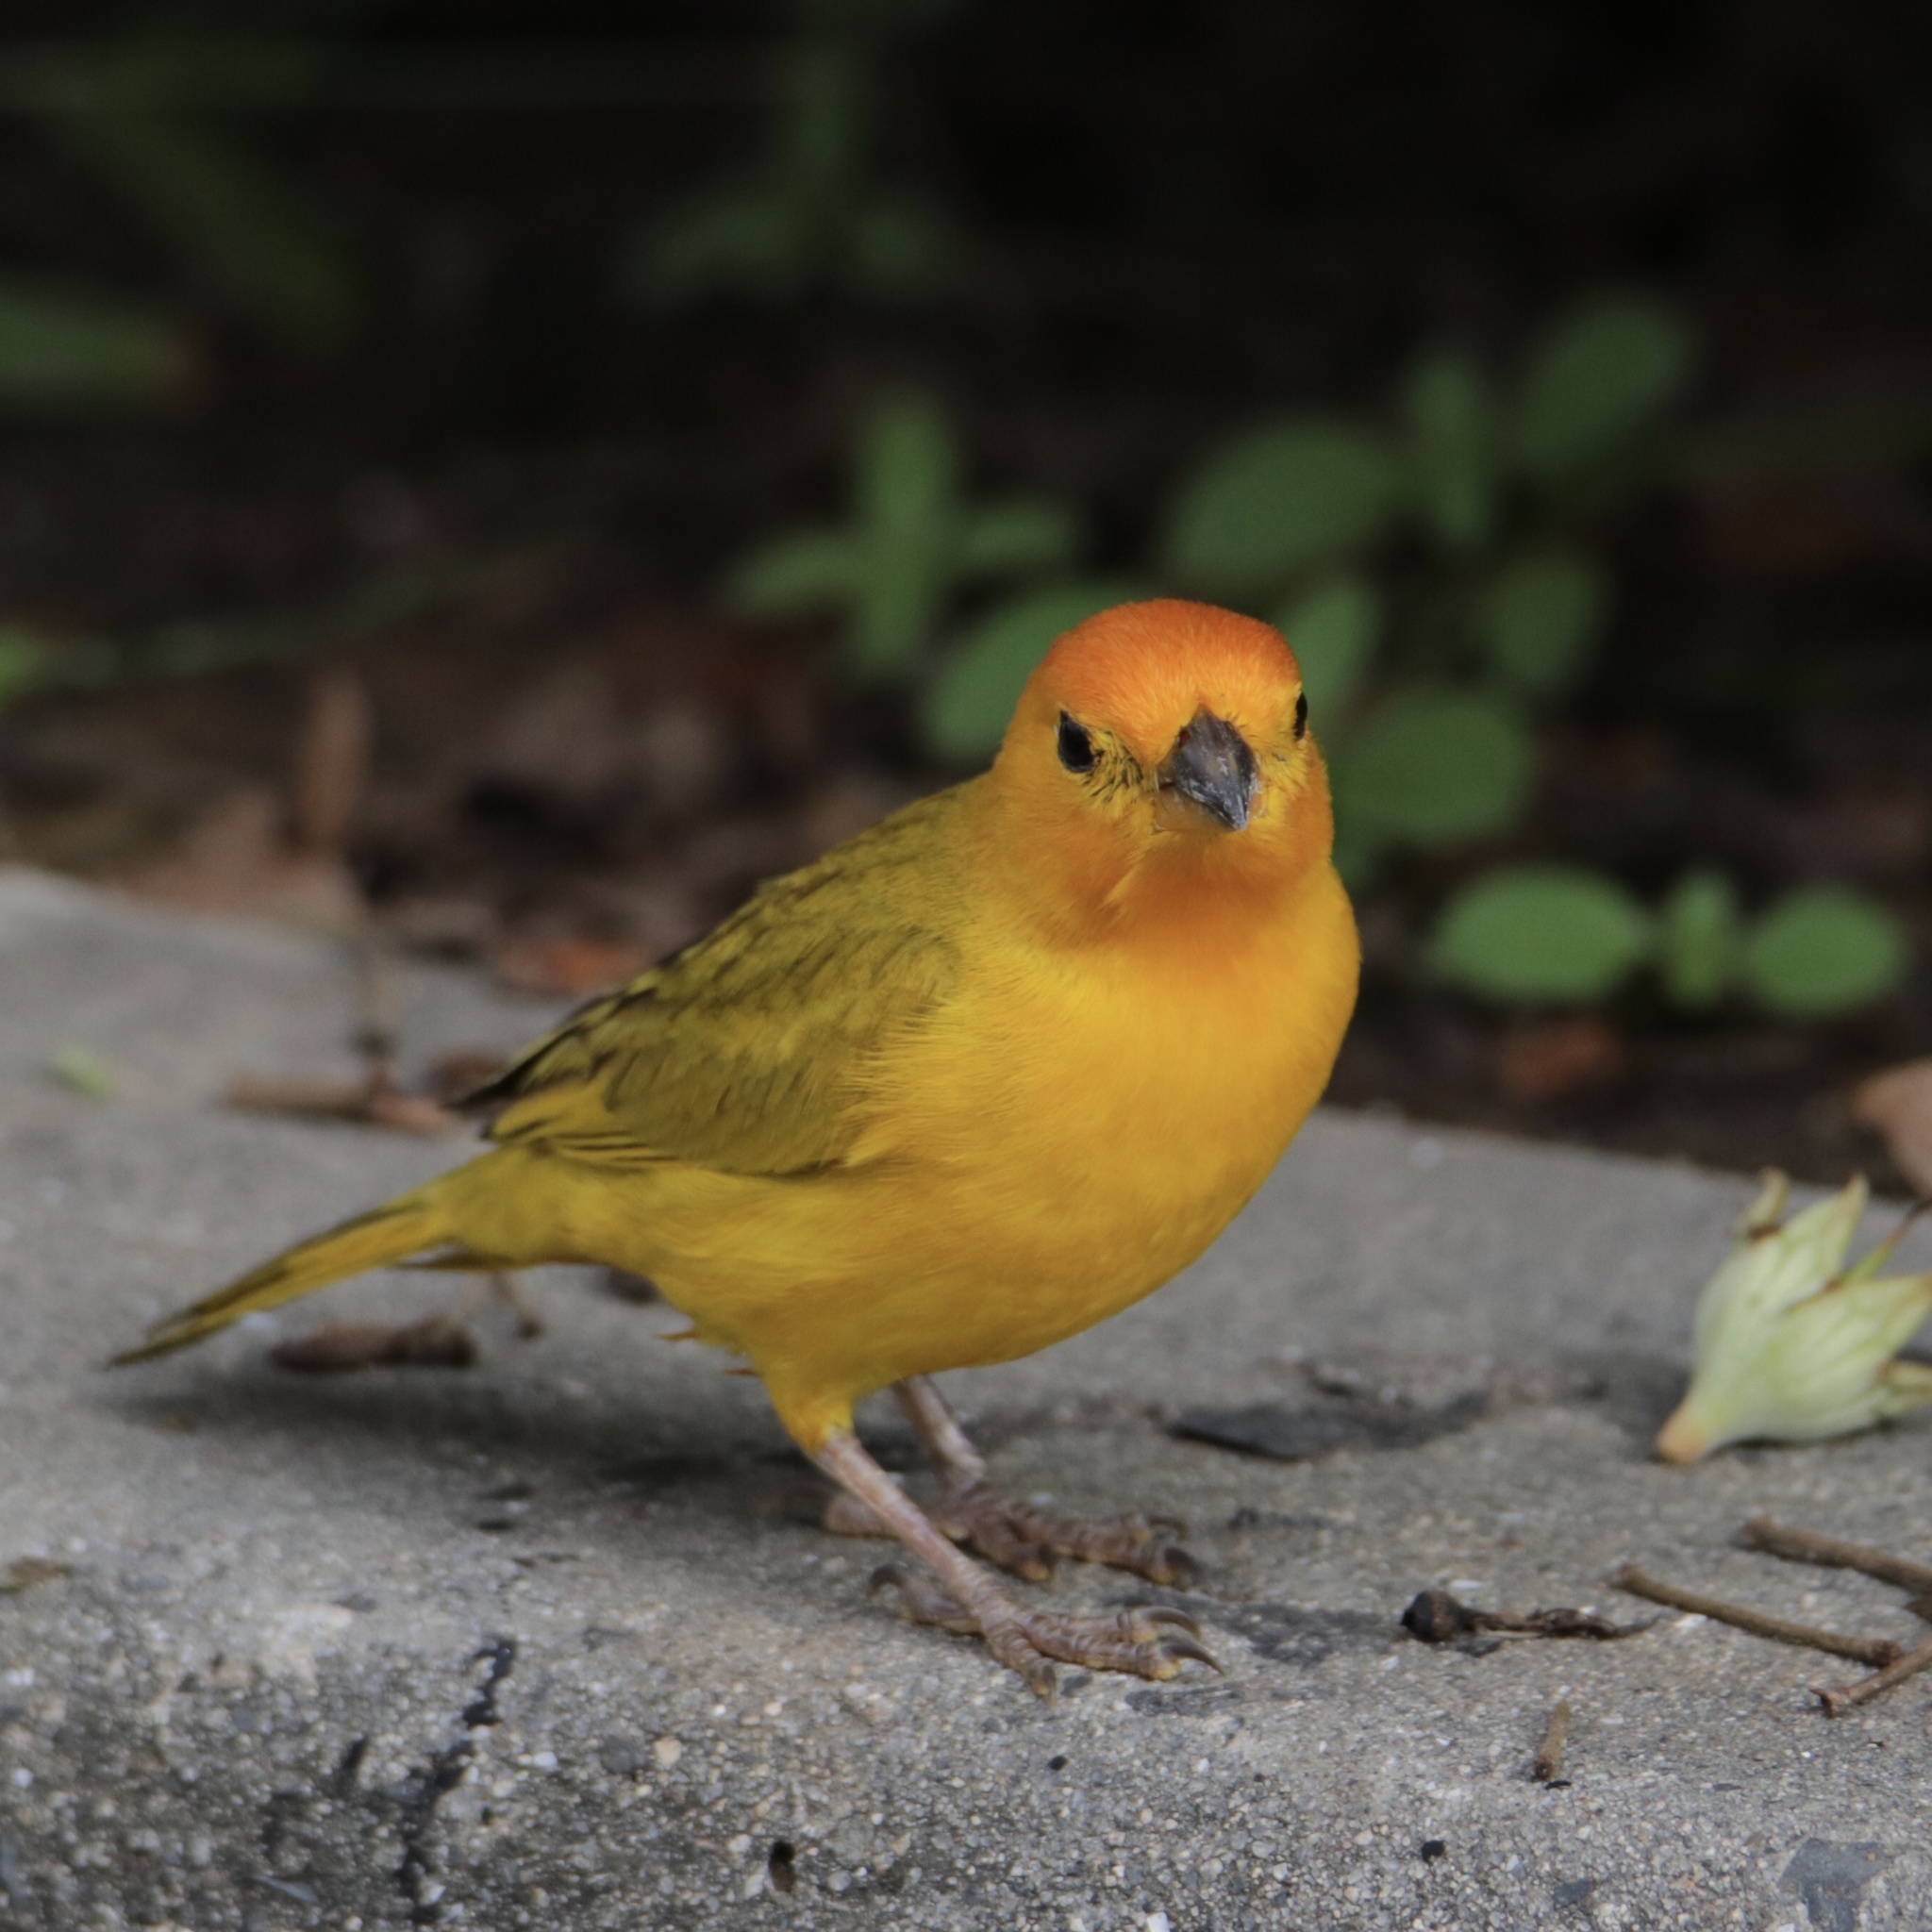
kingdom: Animalia
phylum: Chordata
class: Aves
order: Passeriformes
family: Thraupidae
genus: Sicalis
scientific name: Sicalis flaveola
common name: Saffron finch
